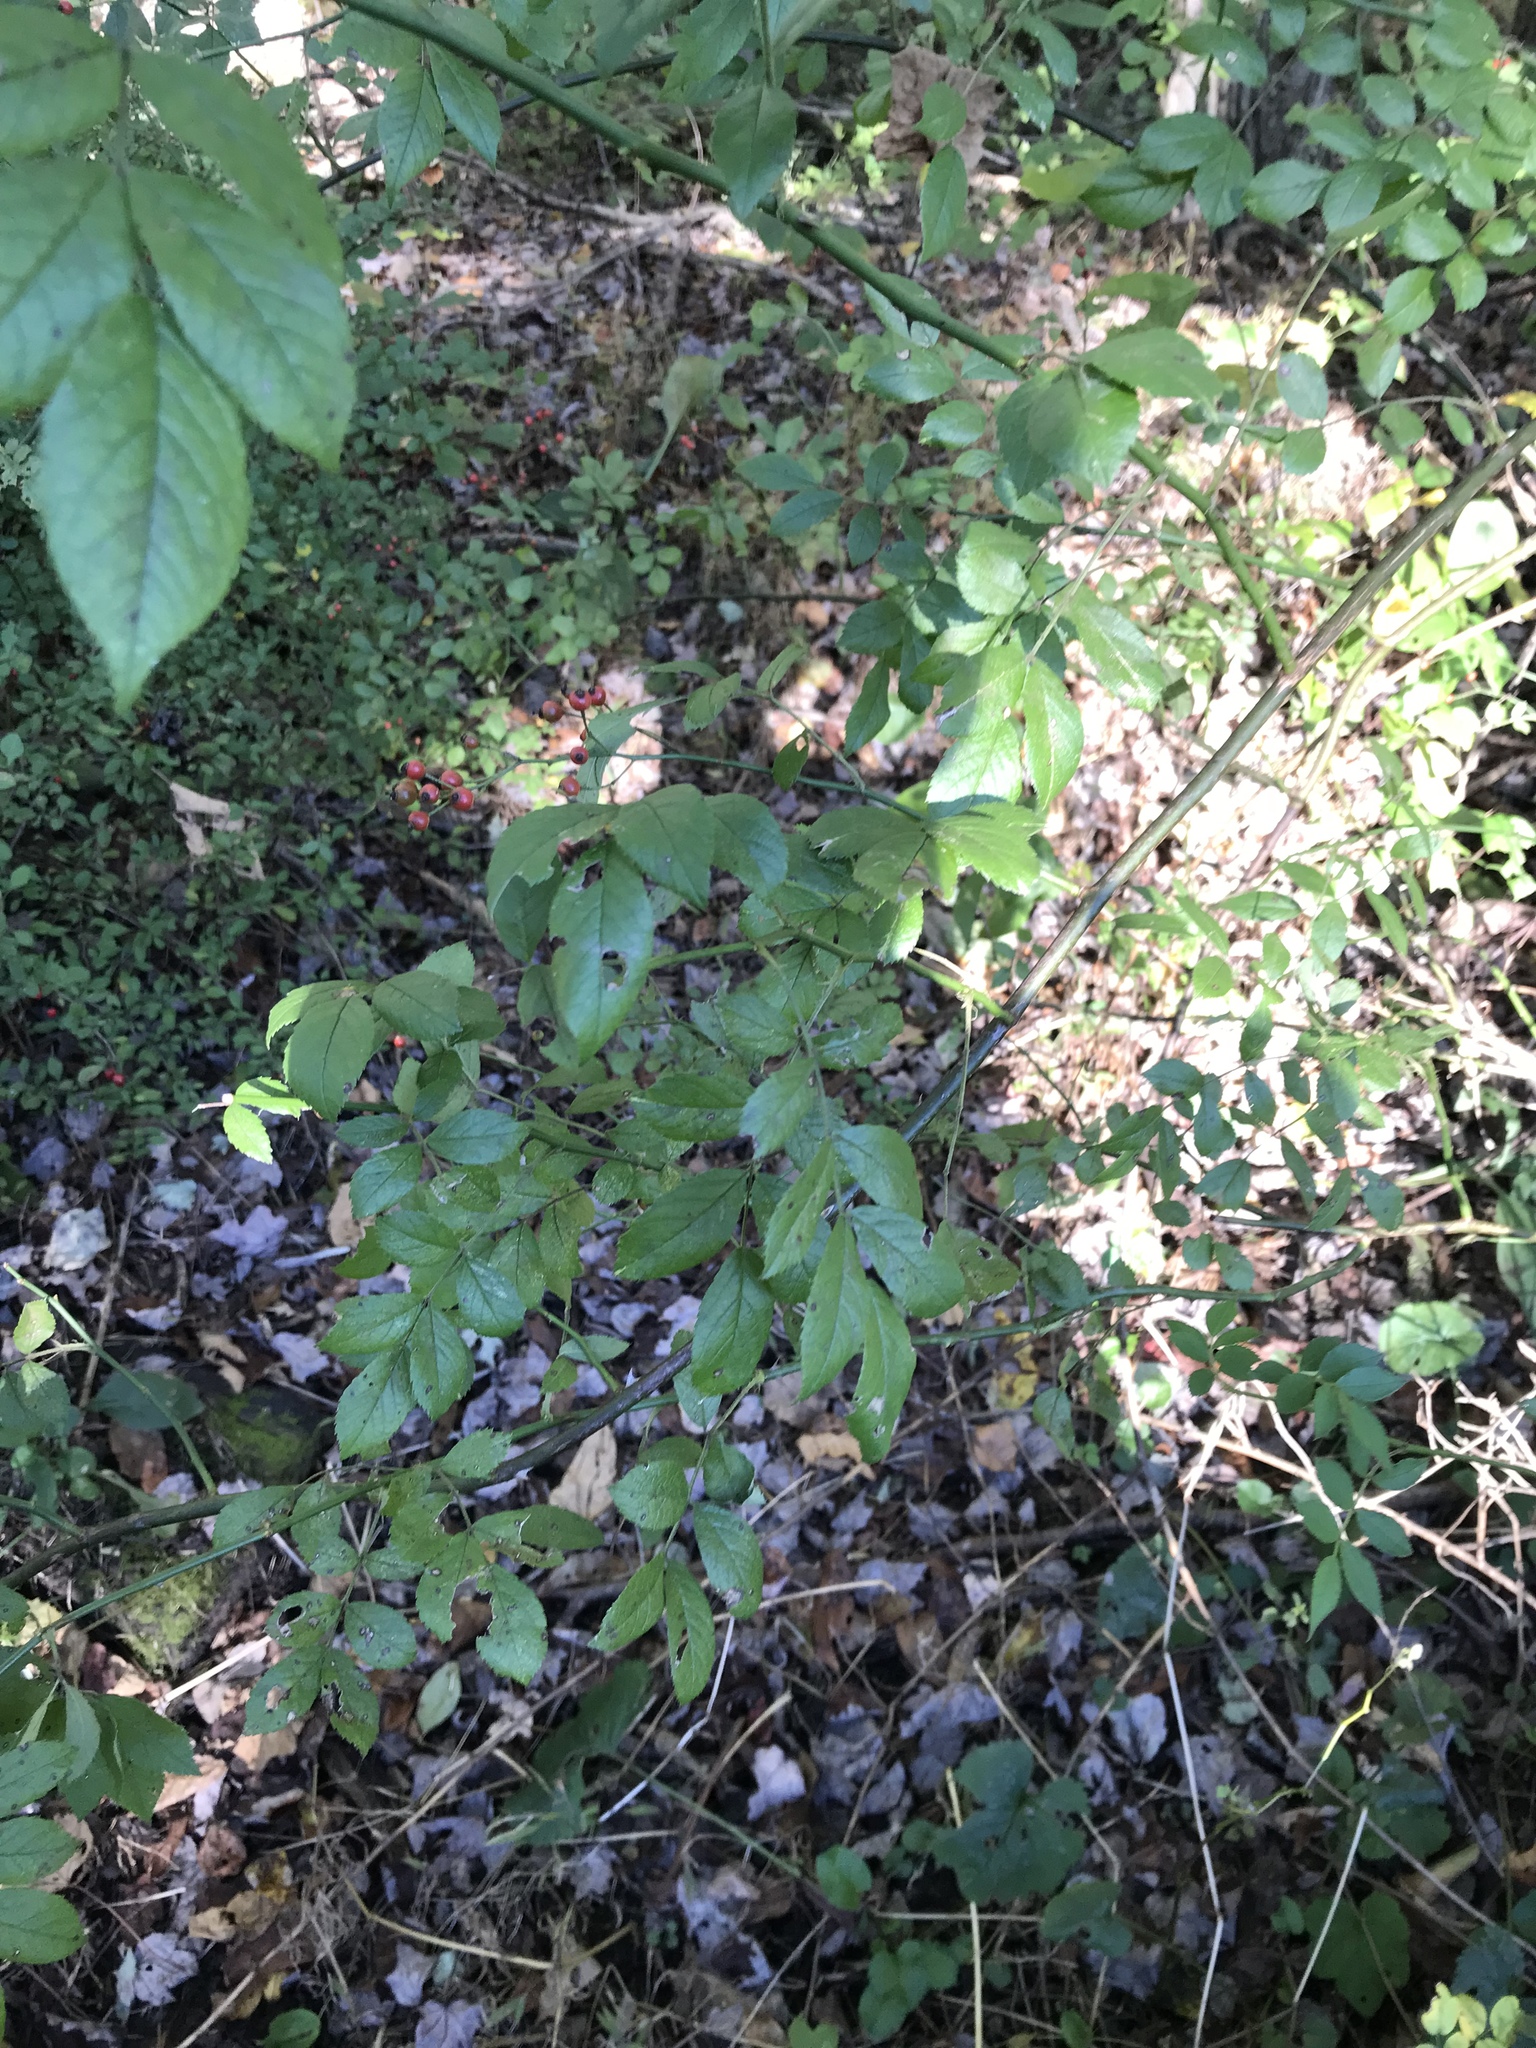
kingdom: Plantae
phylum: Tracheophyta
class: Magnoliopsida
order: Rosales
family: Rosaceae
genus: Rosa
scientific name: Rosa multiflora
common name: Multiflora rose
